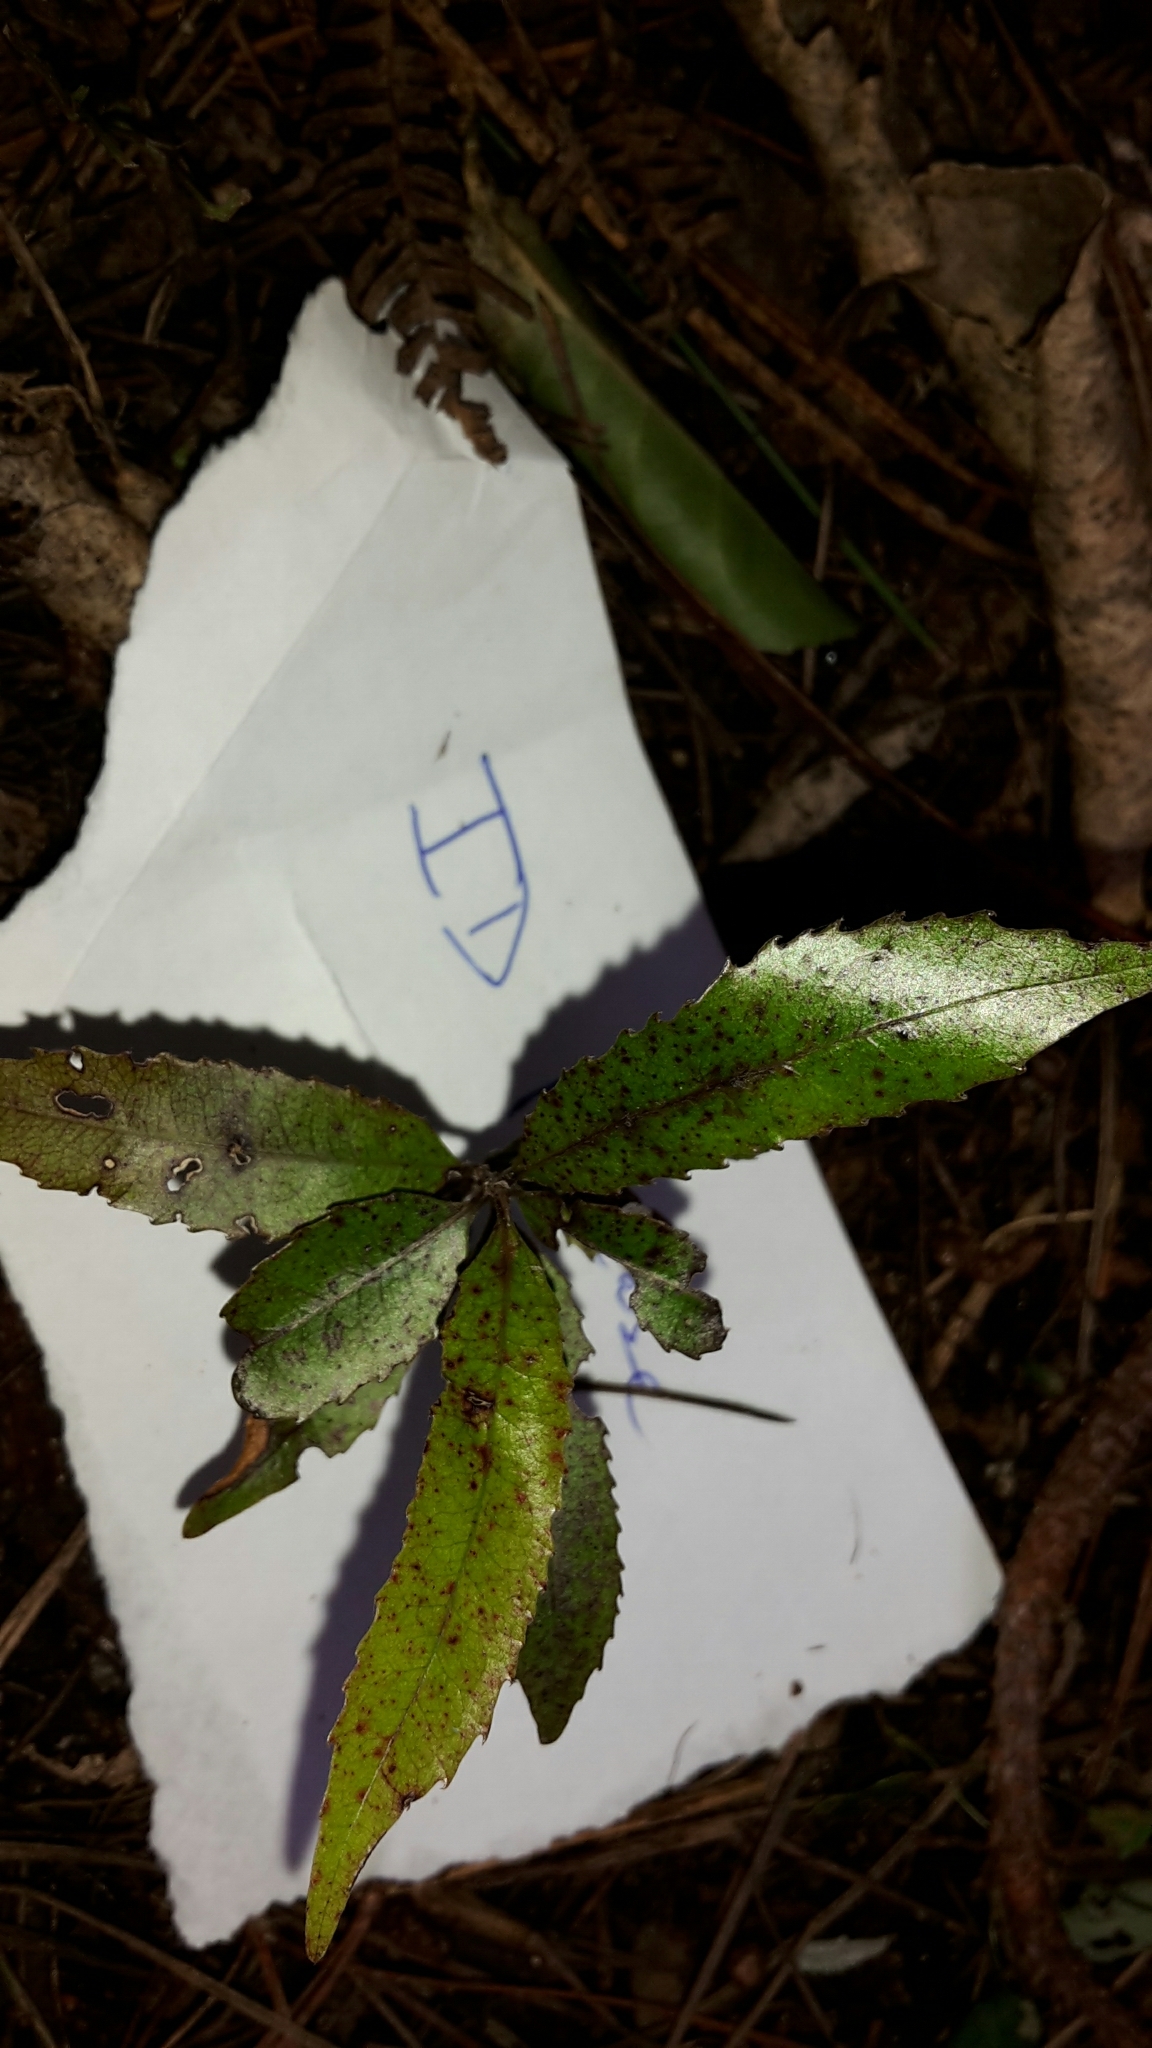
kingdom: Plantae
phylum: Tracheophyta
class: Magnoliopsida
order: Oxalidales
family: Elaeocarpaceae
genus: Elaeocarpus
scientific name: Elaeocarpus dentatus
